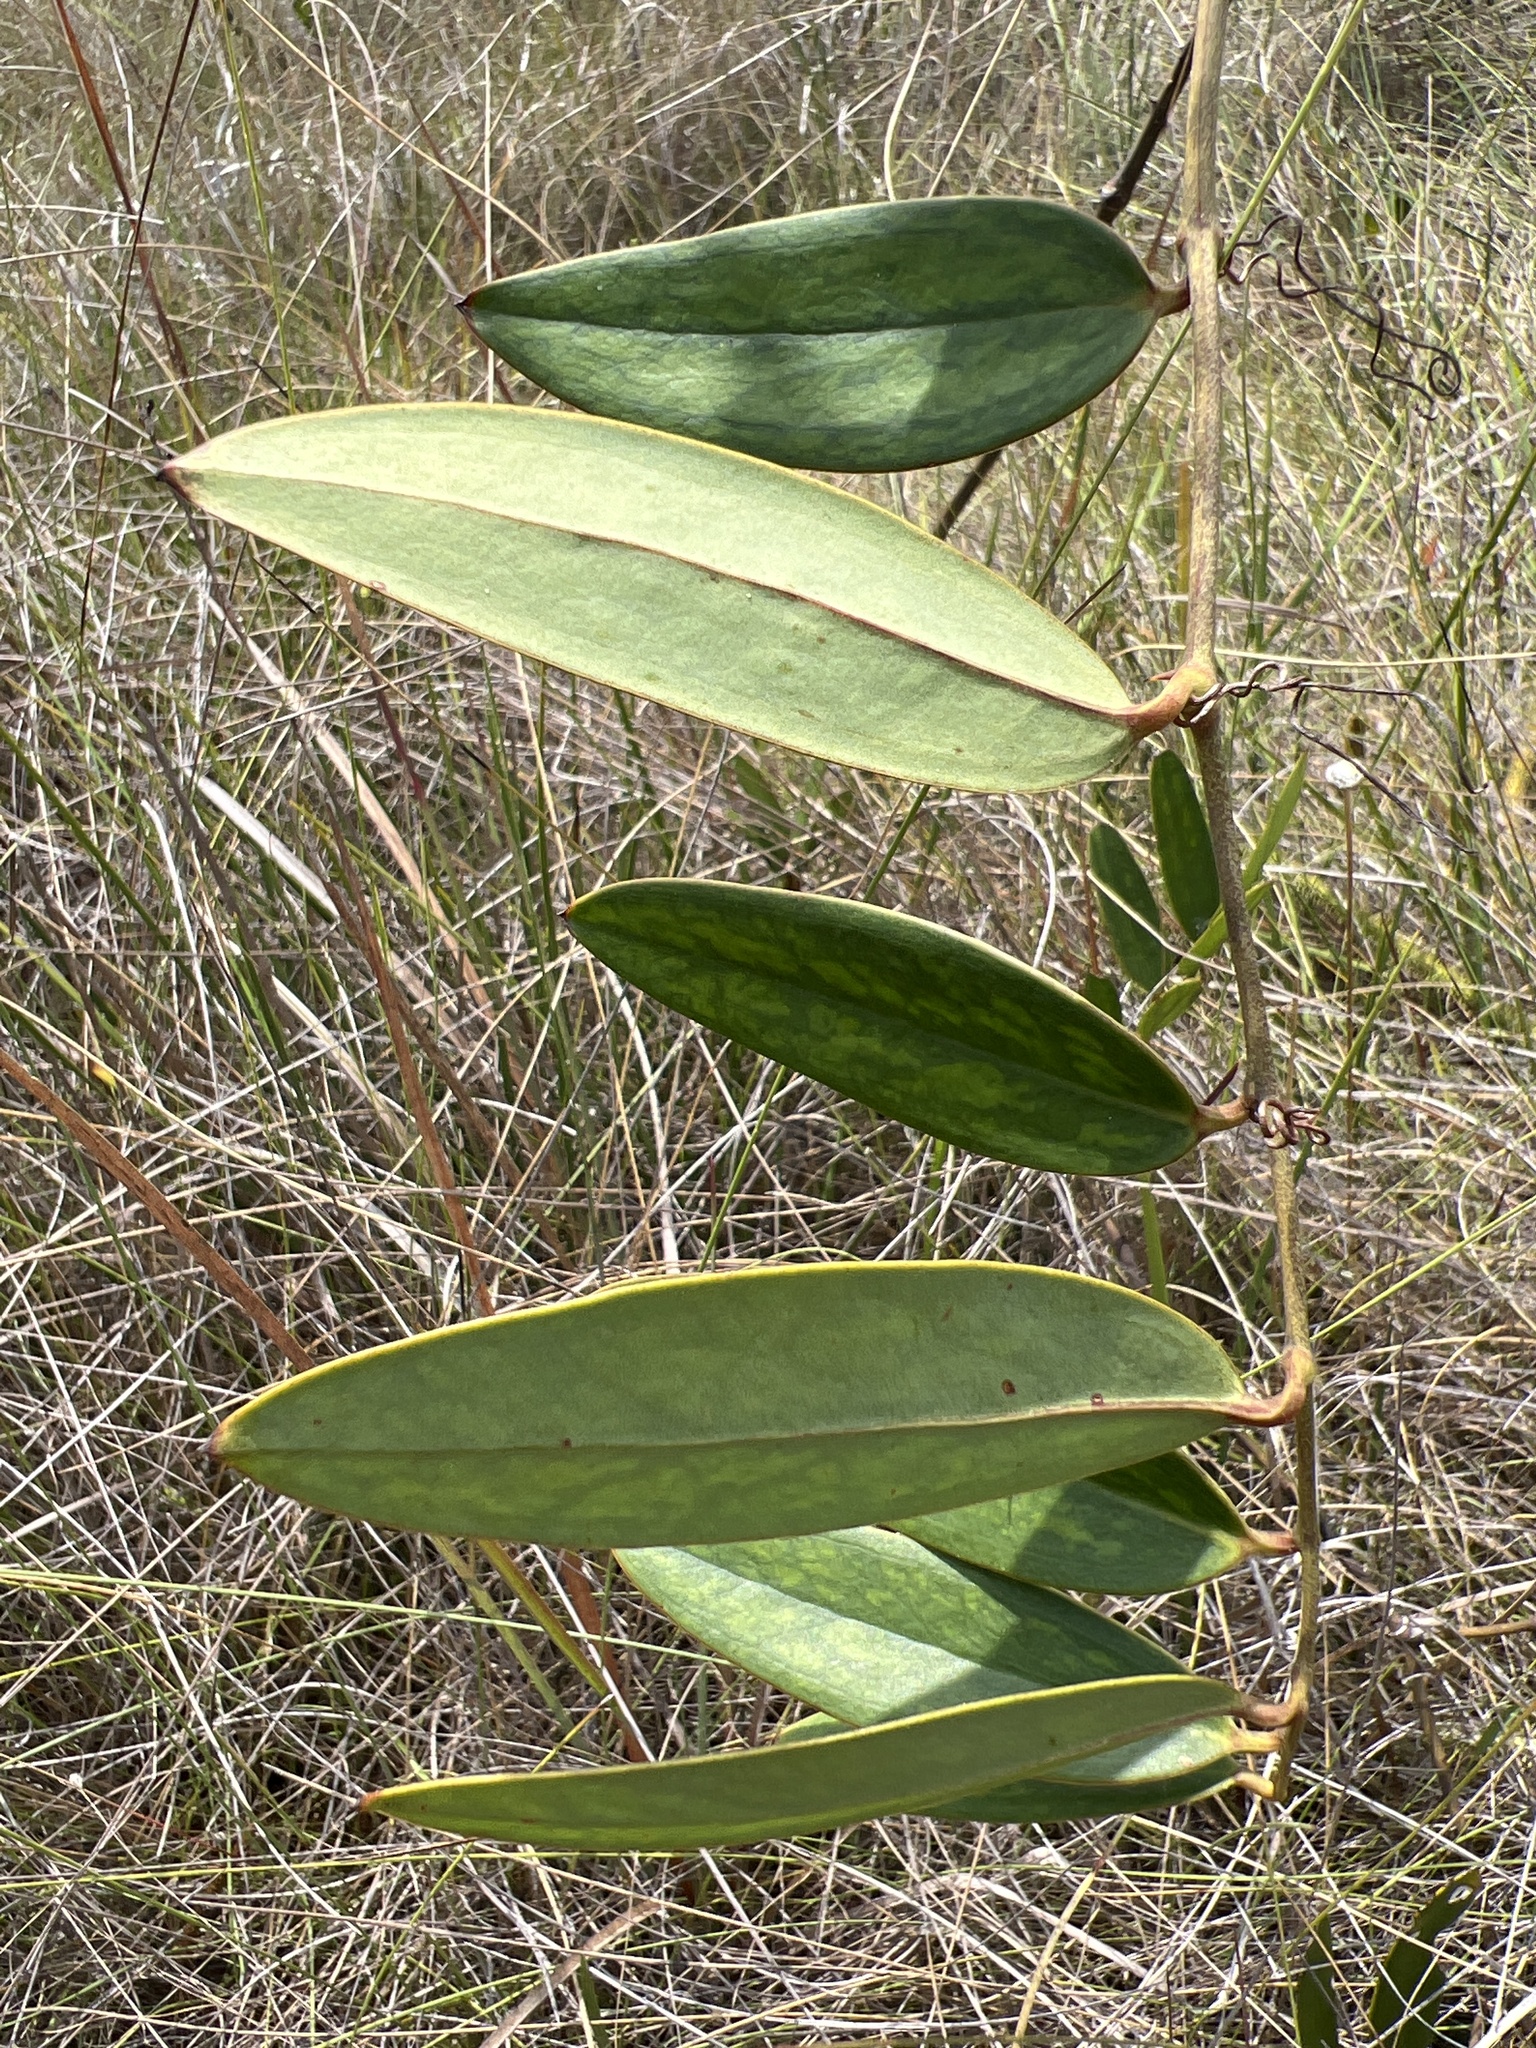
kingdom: Plantae
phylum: Tracheophyta
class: Liliopsida
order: Liliales
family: Smilacaceae
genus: Smilax
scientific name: Smilax laurifolia
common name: Bamboovine
